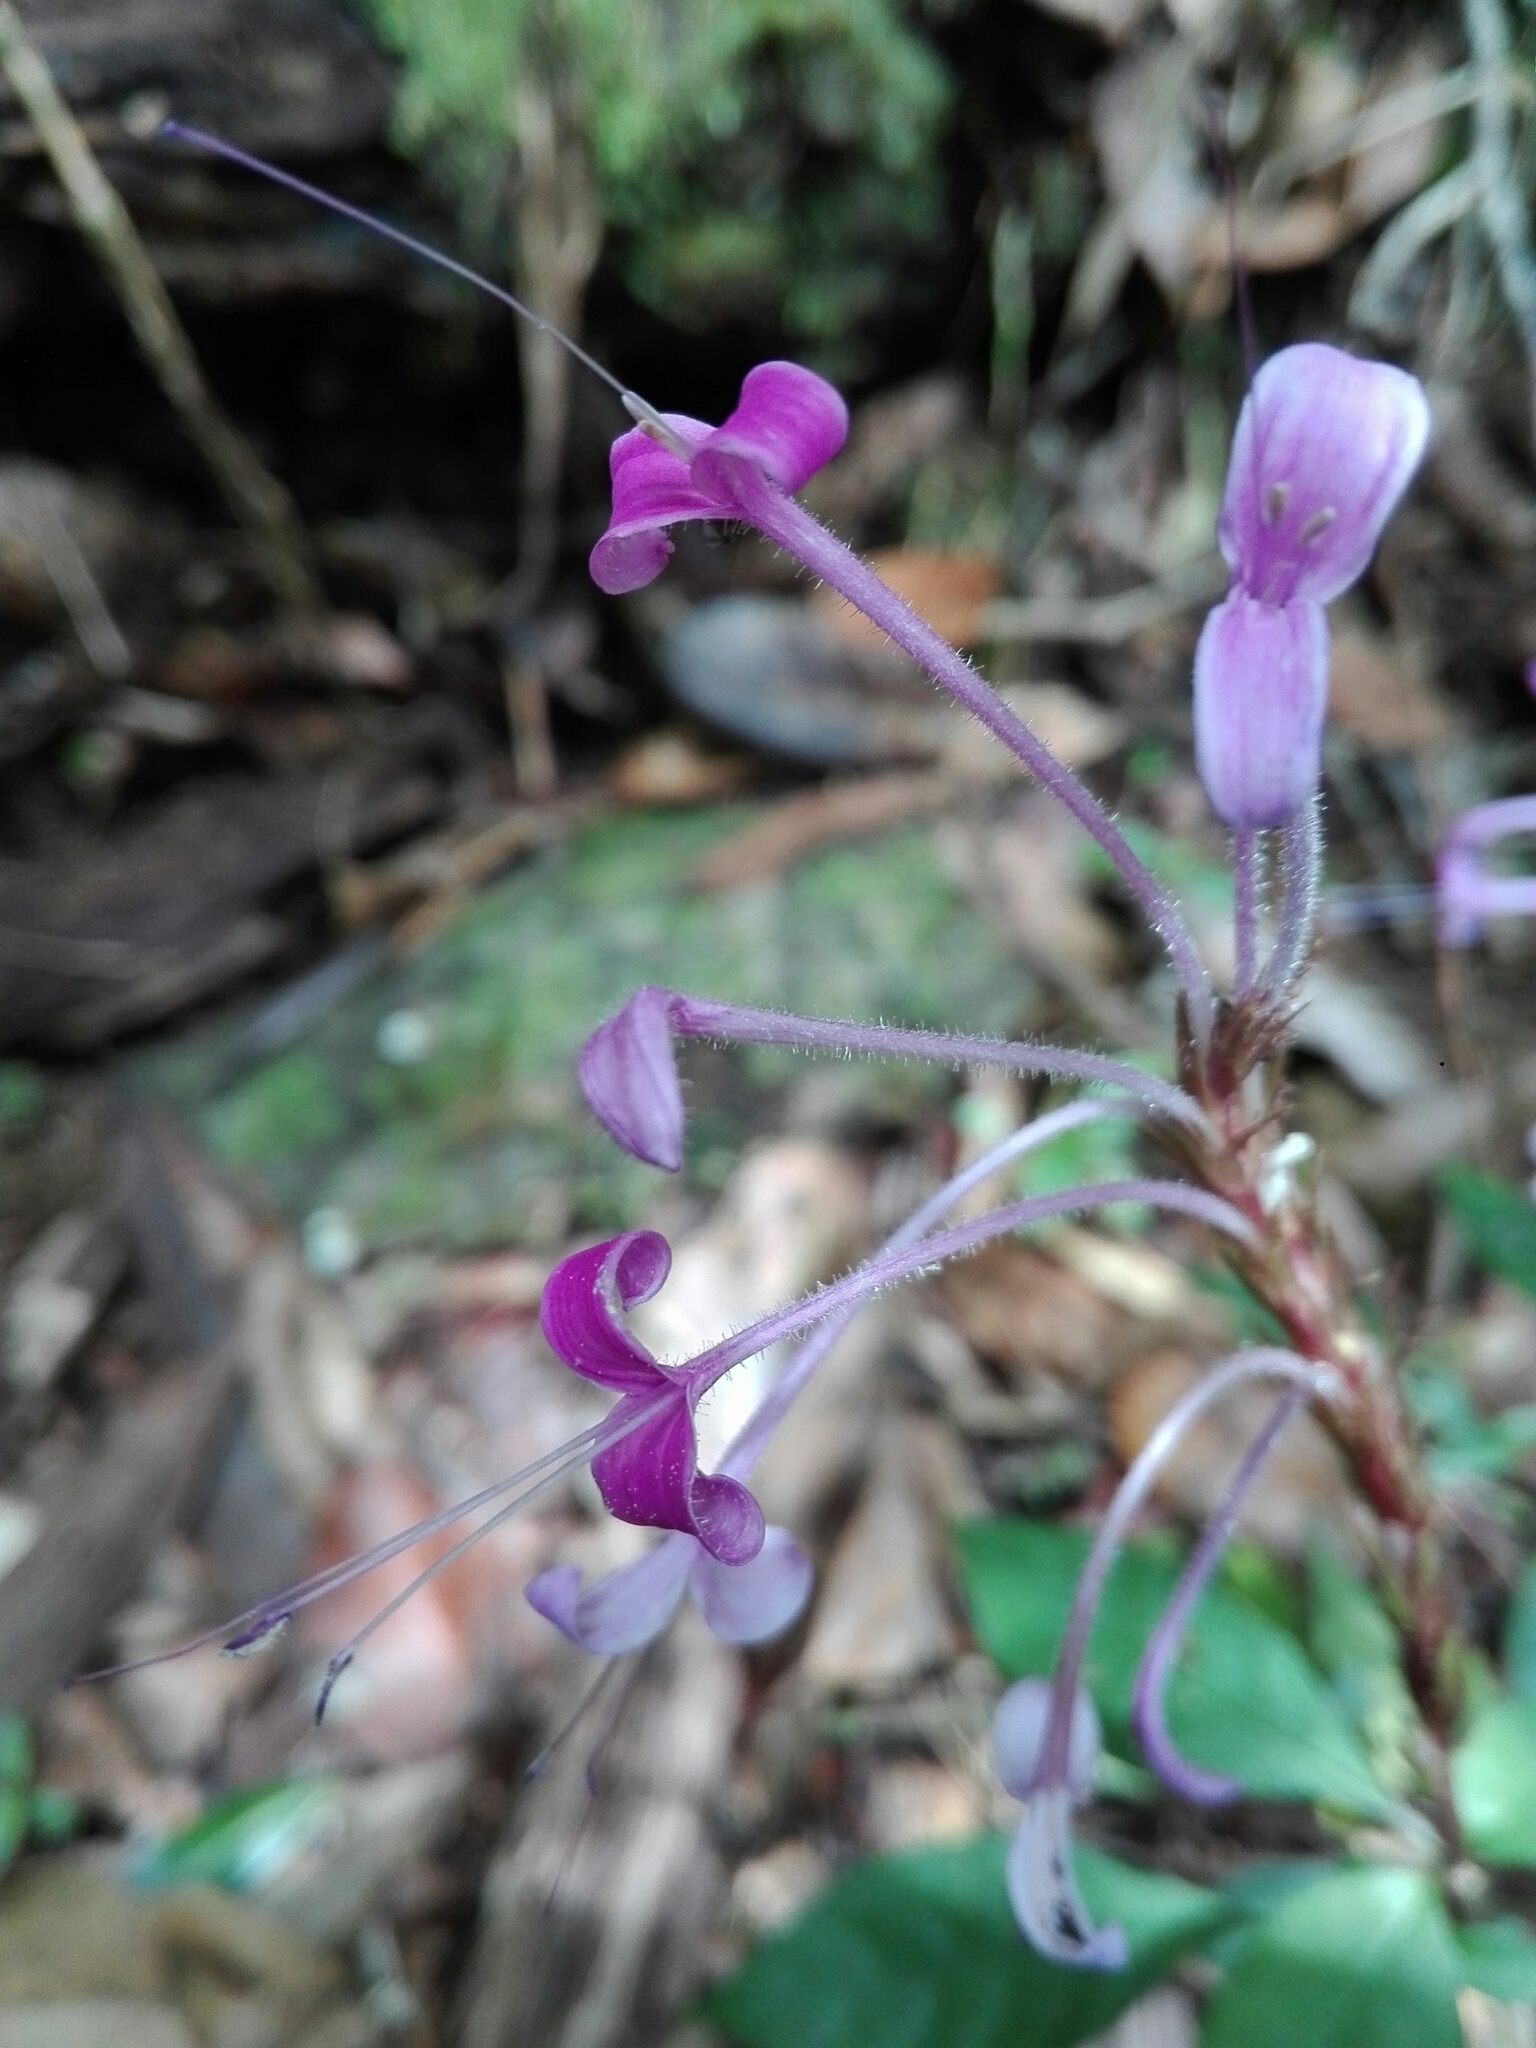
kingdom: Plantae
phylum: Tracheophyta
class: Magnoliopsida
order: Lamiales
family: Acanthaceae
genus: Brachystephanus
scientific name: Brachystephanus lyallii
